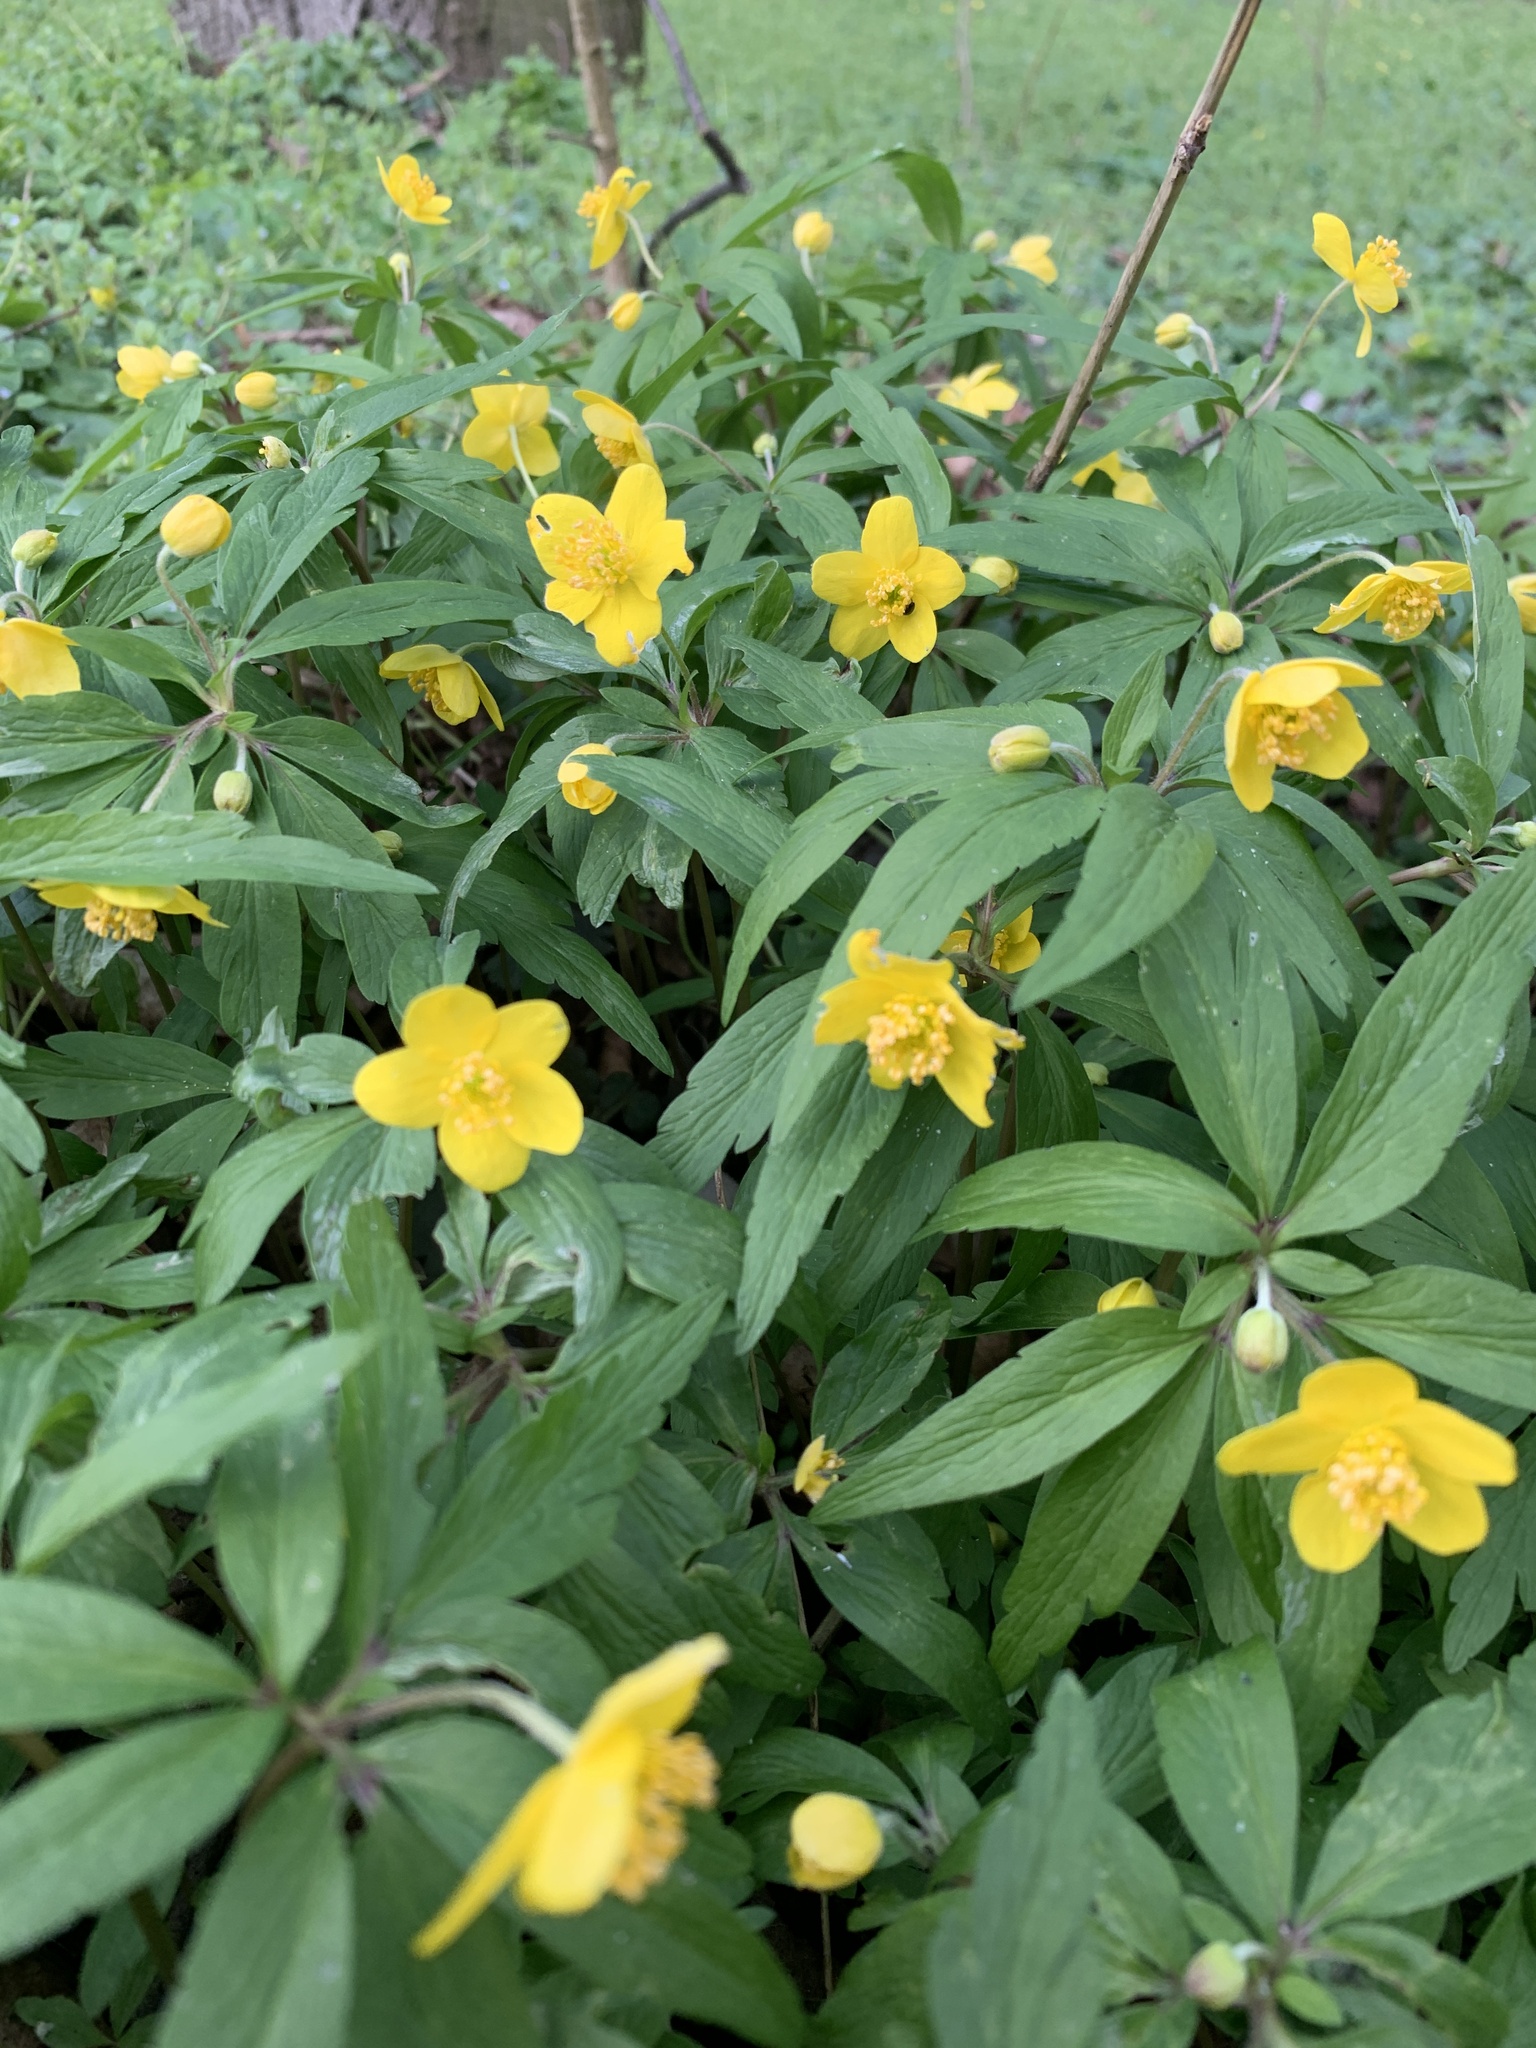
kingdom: Plantae
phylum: Tracheophyta
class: Magnoliopsida
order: Ranunculales
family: Ranunculaceae
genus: Anemone
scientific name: Anemone ranunculoides
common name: Yellow anemone
